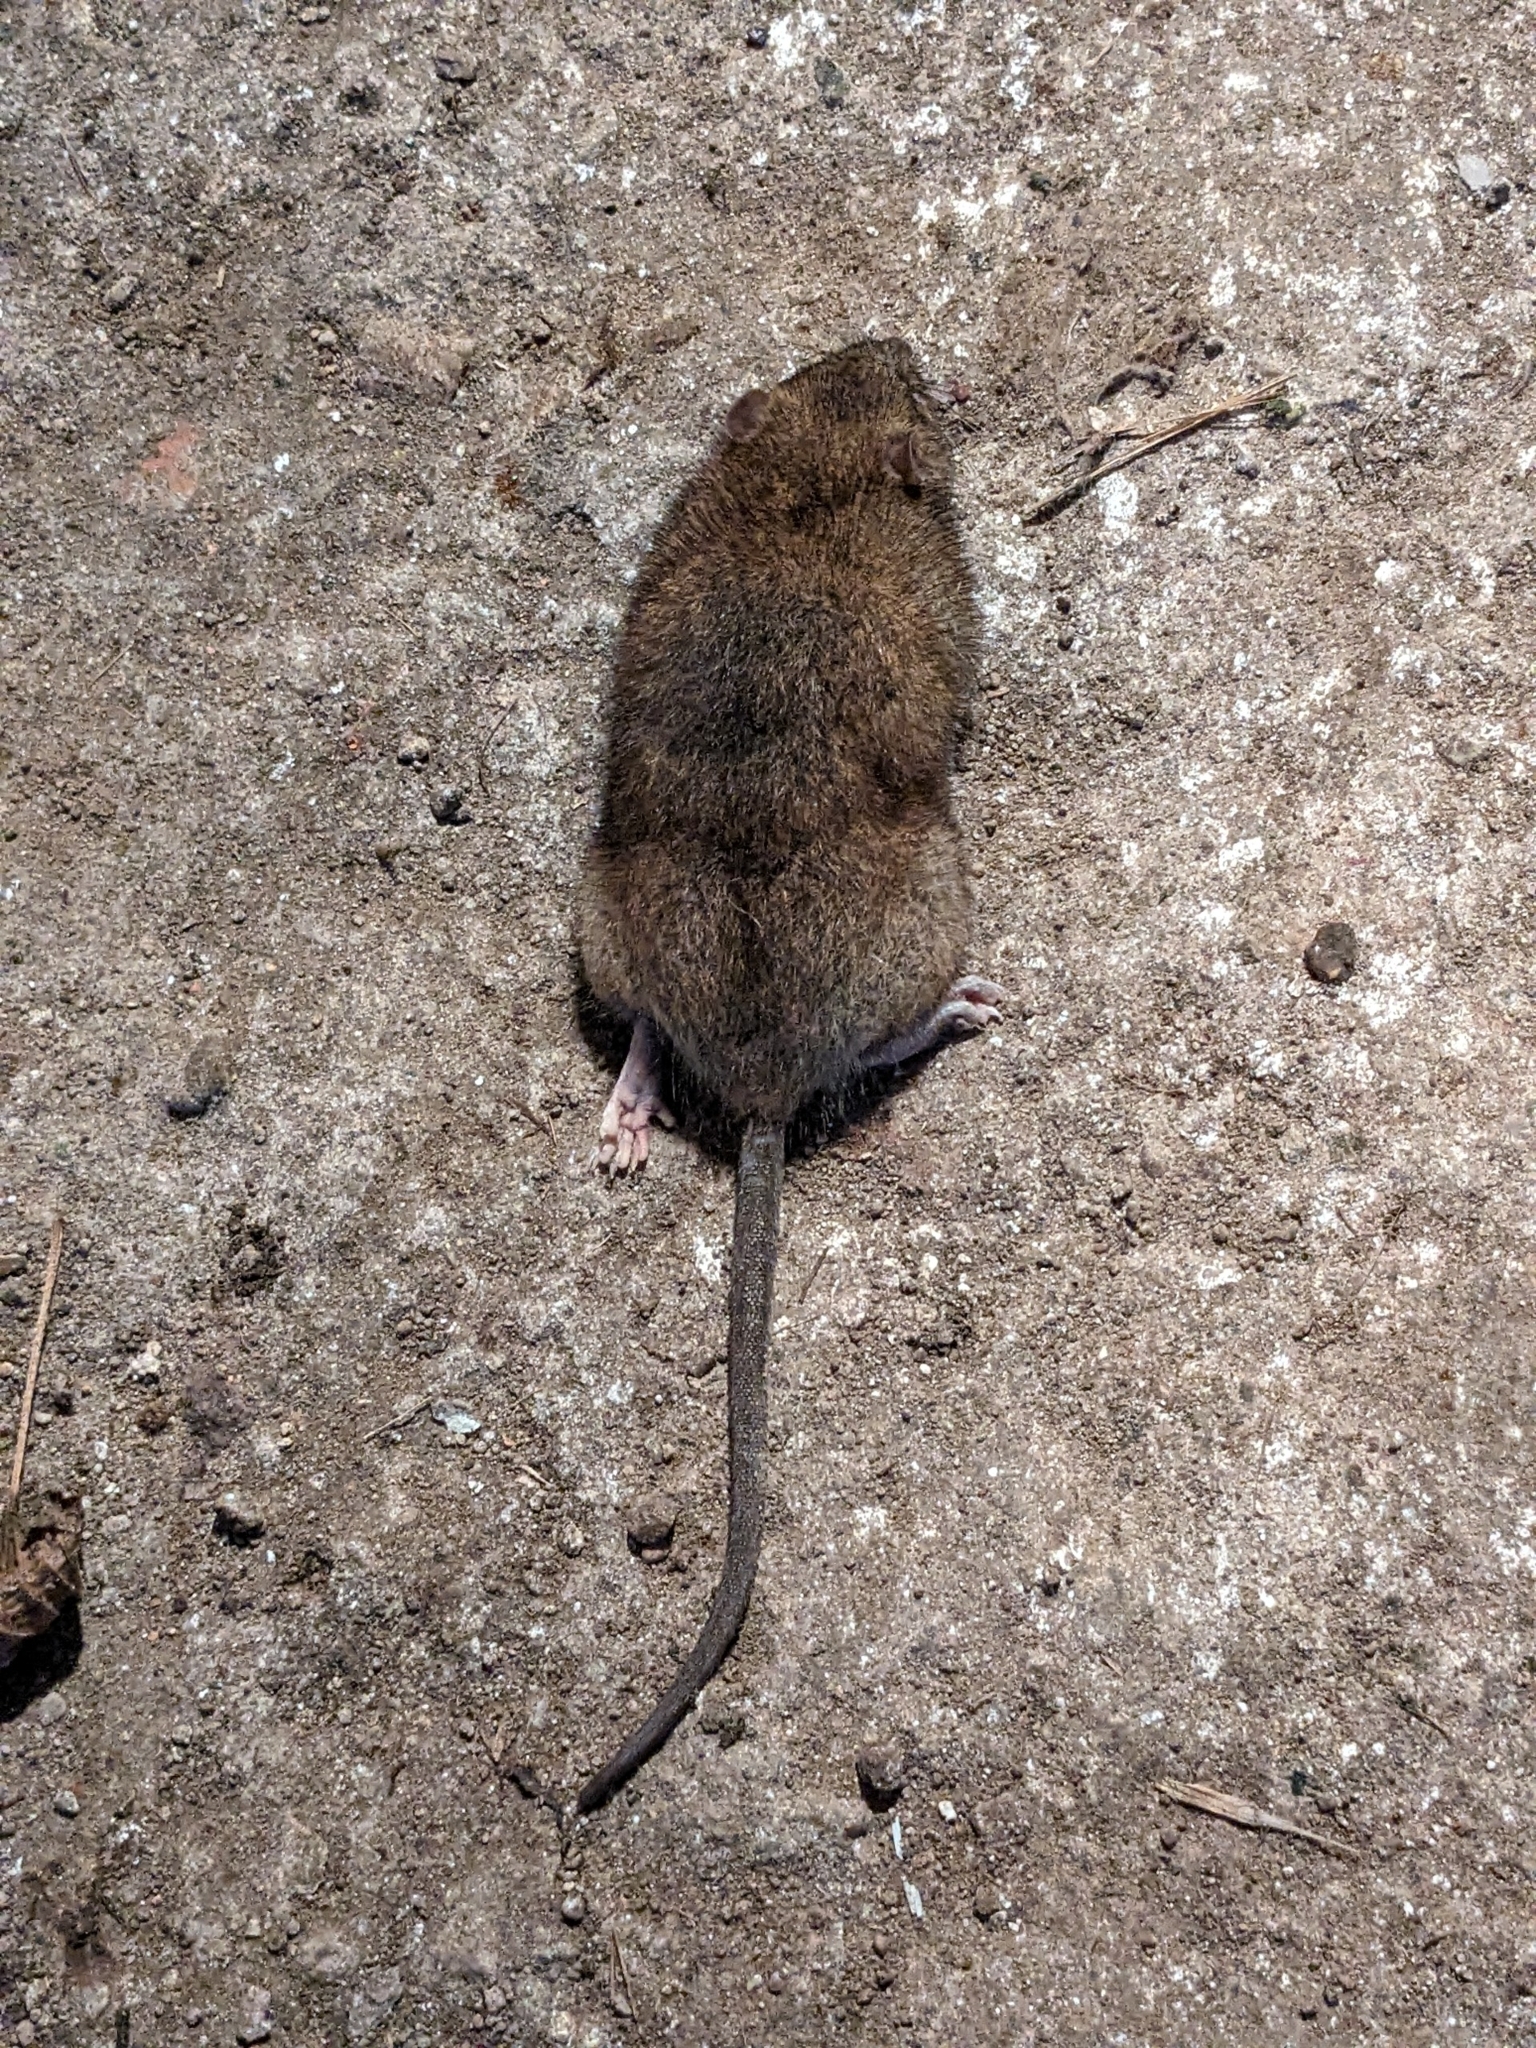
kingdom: Animalia
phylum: Chordata
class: Mammalia
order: Rodentia
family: Muridae
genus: Rattus
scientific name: Rattus norvegicus
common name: Brown rat
